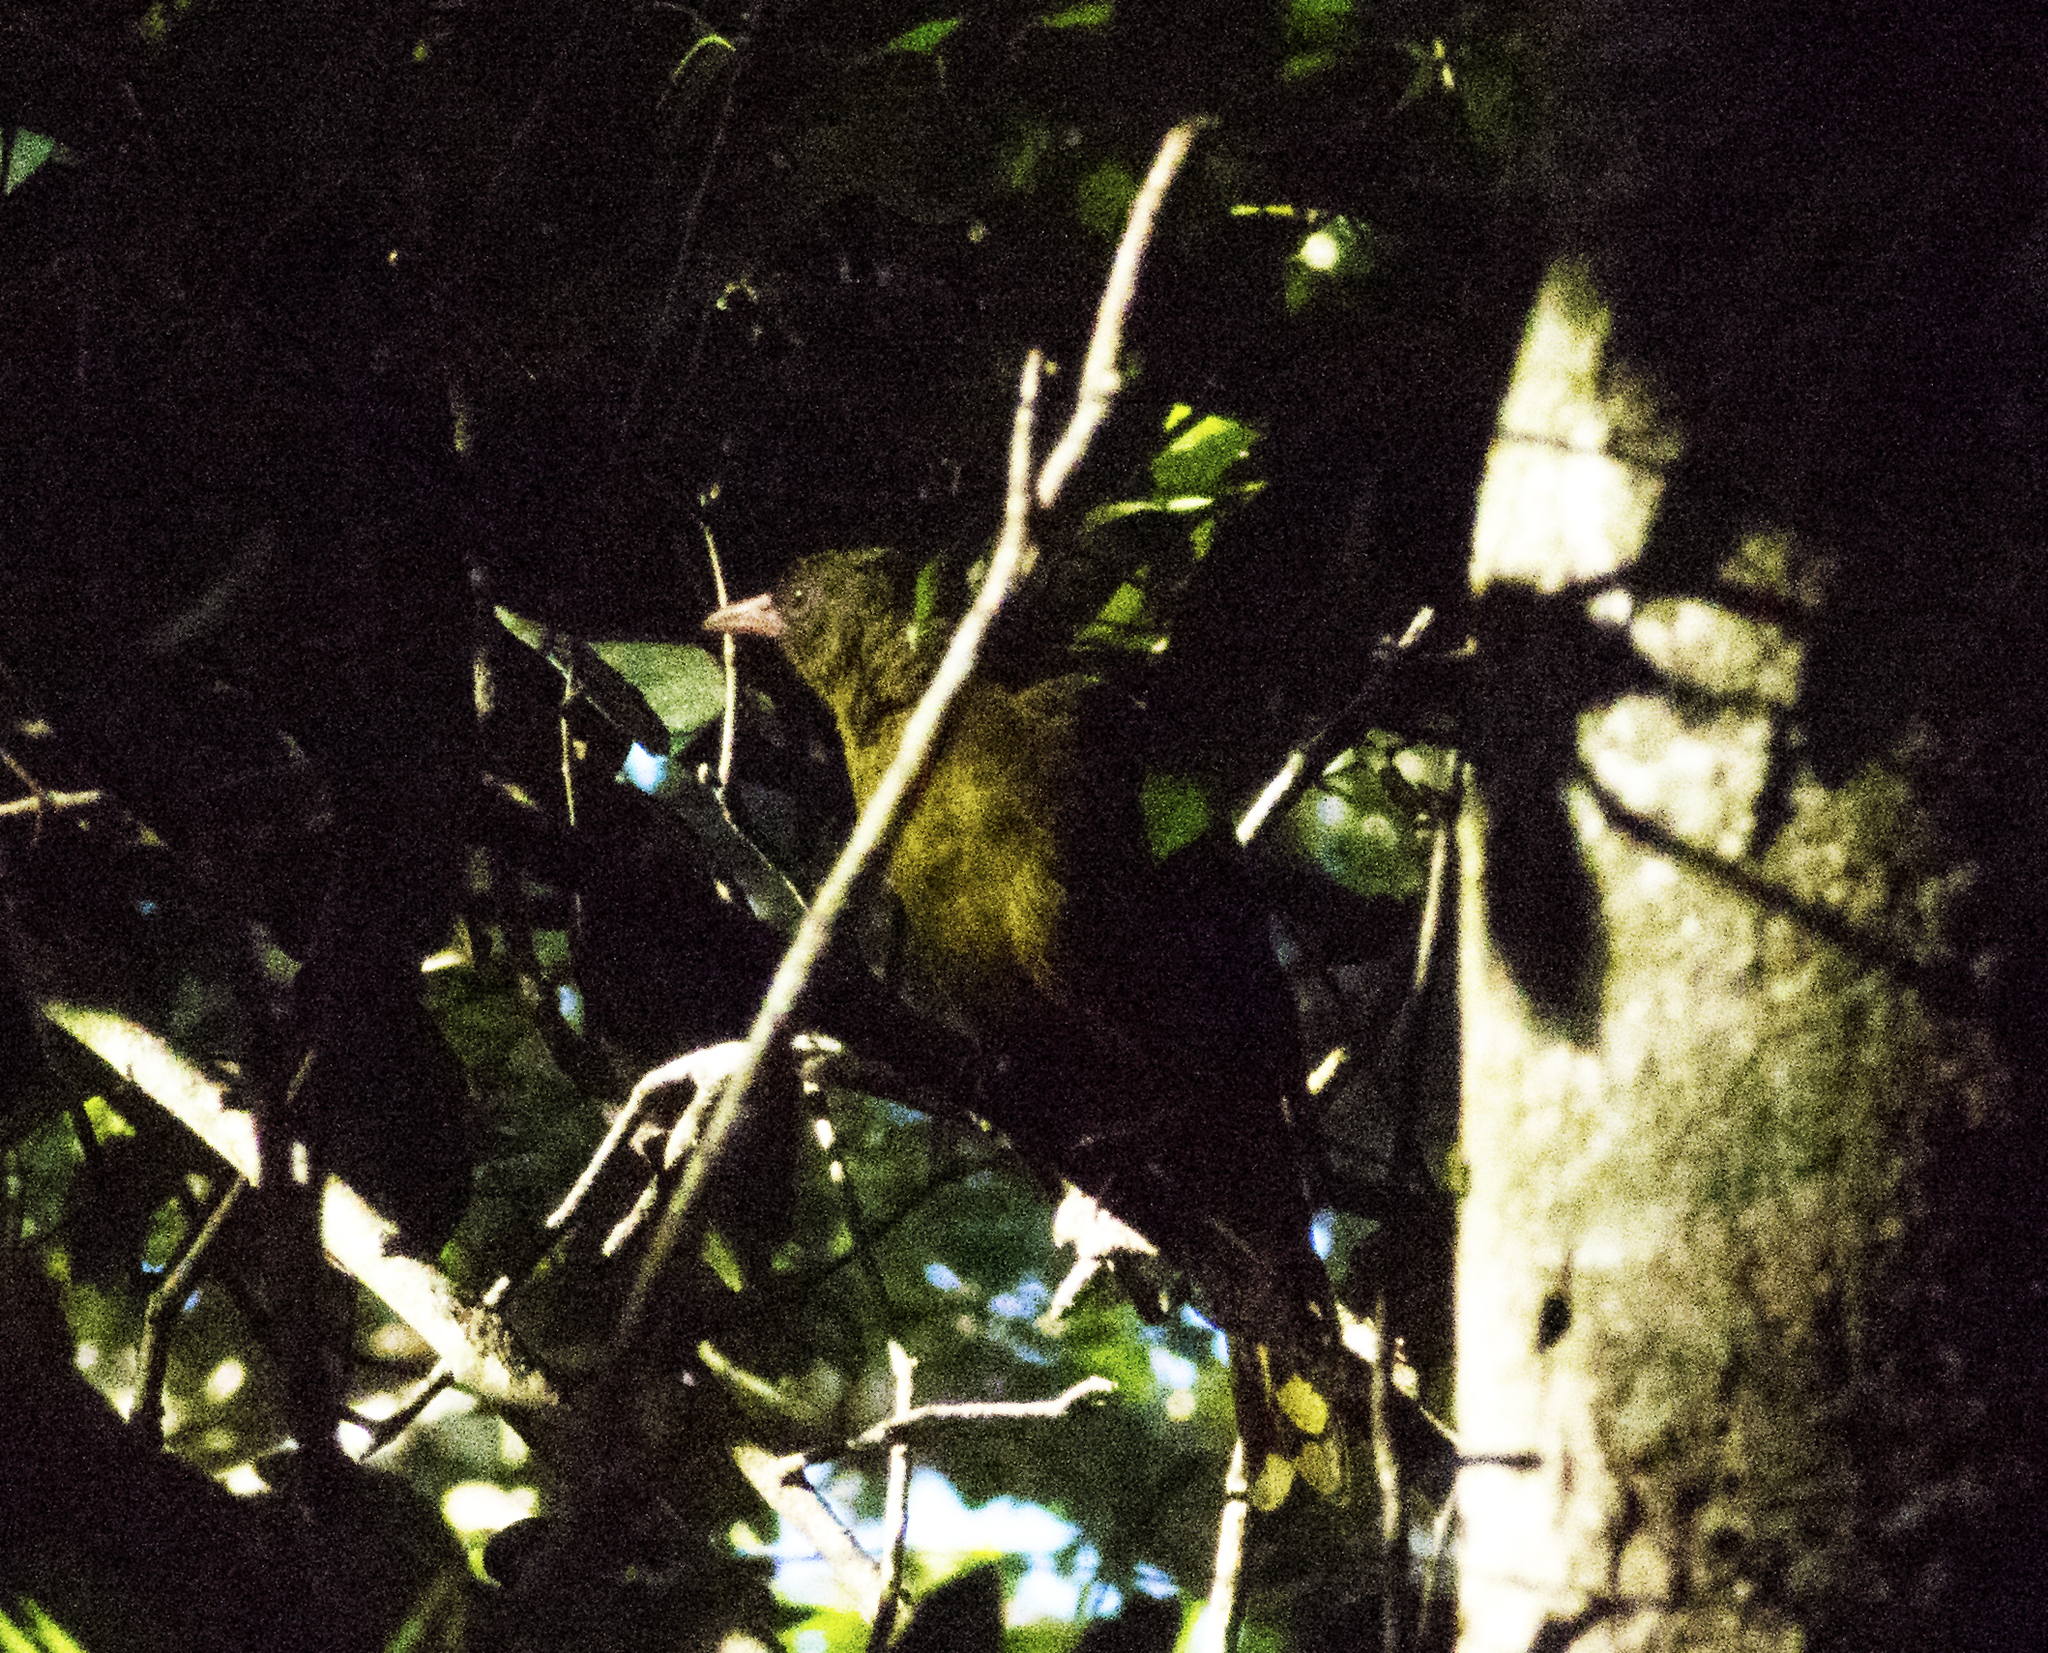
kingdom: Animalia
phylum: Chordata
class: Aves
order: Passeriformes
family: Oriolidae
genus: Oriolus
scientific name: Oriolus flavocinctus
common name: Green oriole
